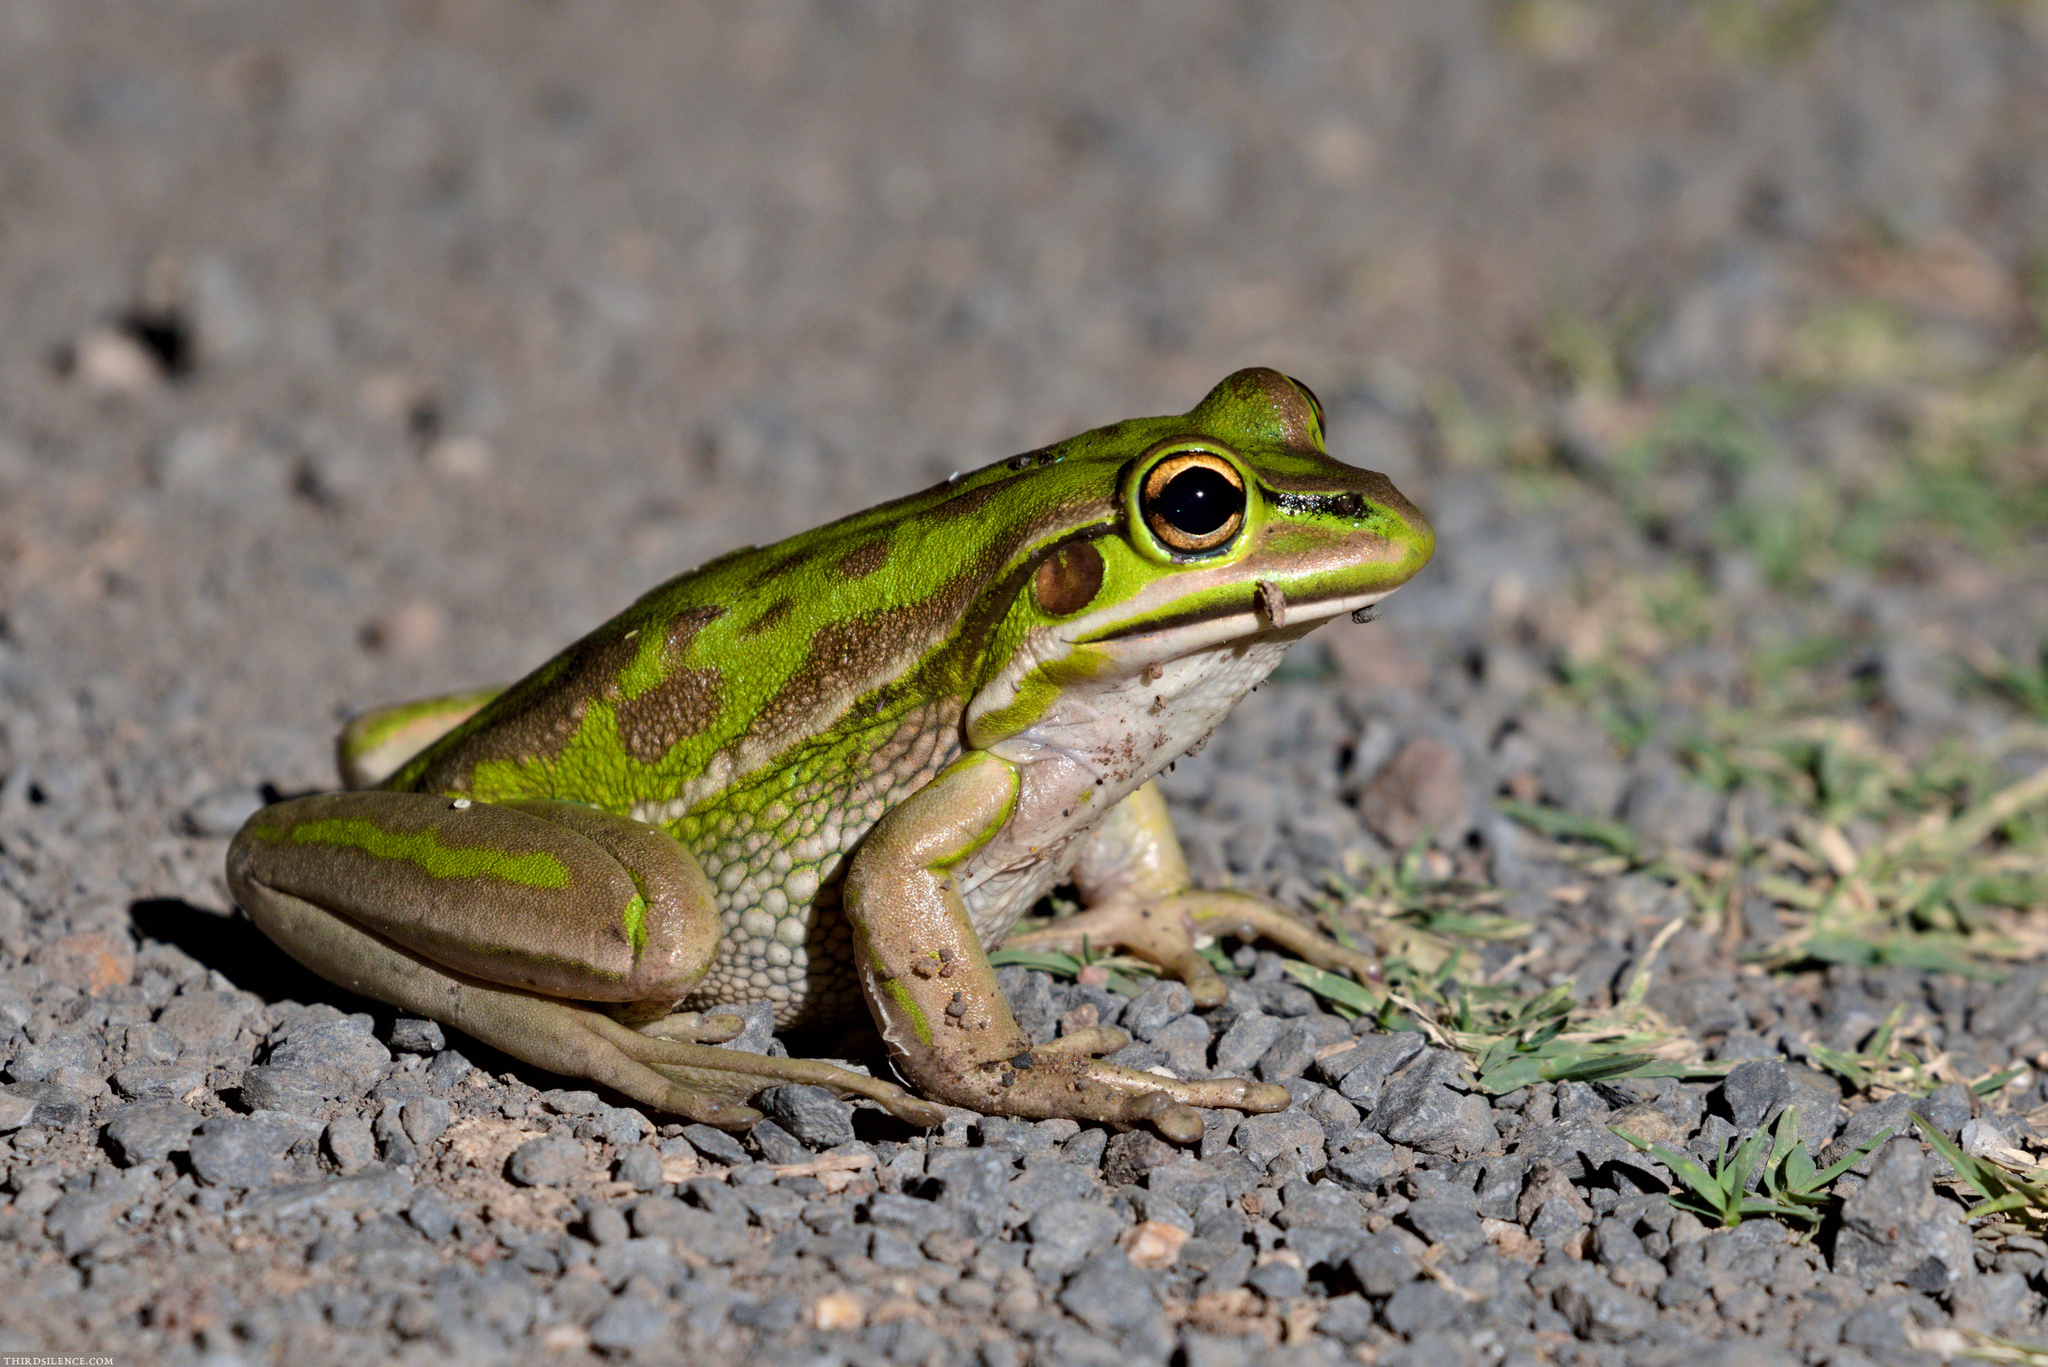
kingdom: Animalia
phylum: Chordata
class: Amphibia
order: Anura
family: Pelodryadidae
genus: Ranoidea
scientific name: Ranoidea aurea
